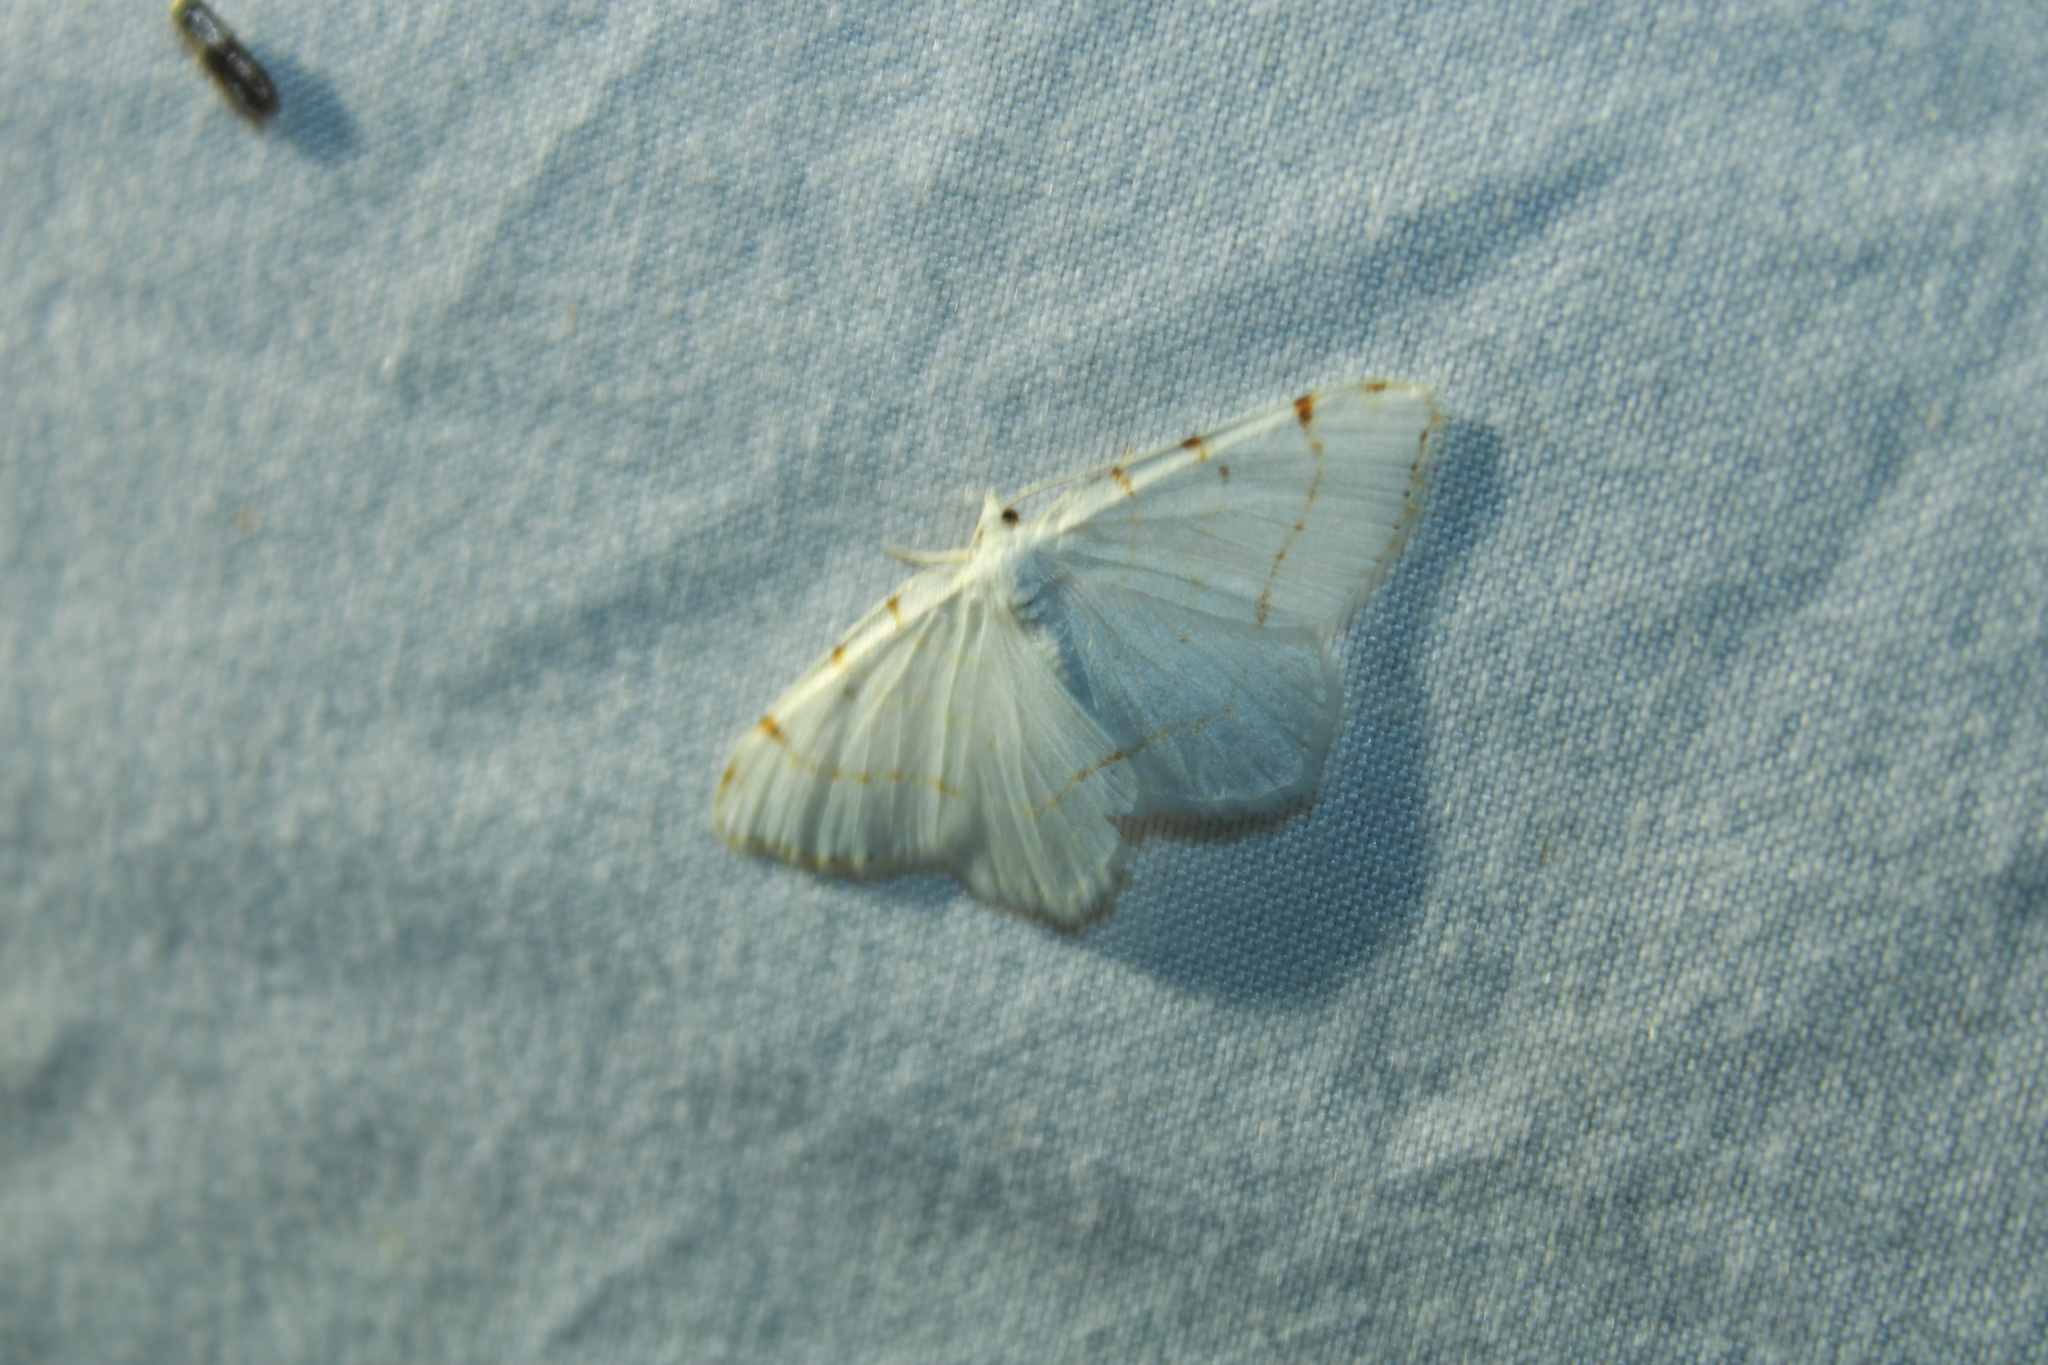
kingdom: Animalia
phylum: Arthropoda
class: Insecta
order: Lepidoptera
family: Geometridae
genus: Macaria
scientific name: Macaria pustularia
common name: Lesser maple spanworm moth
